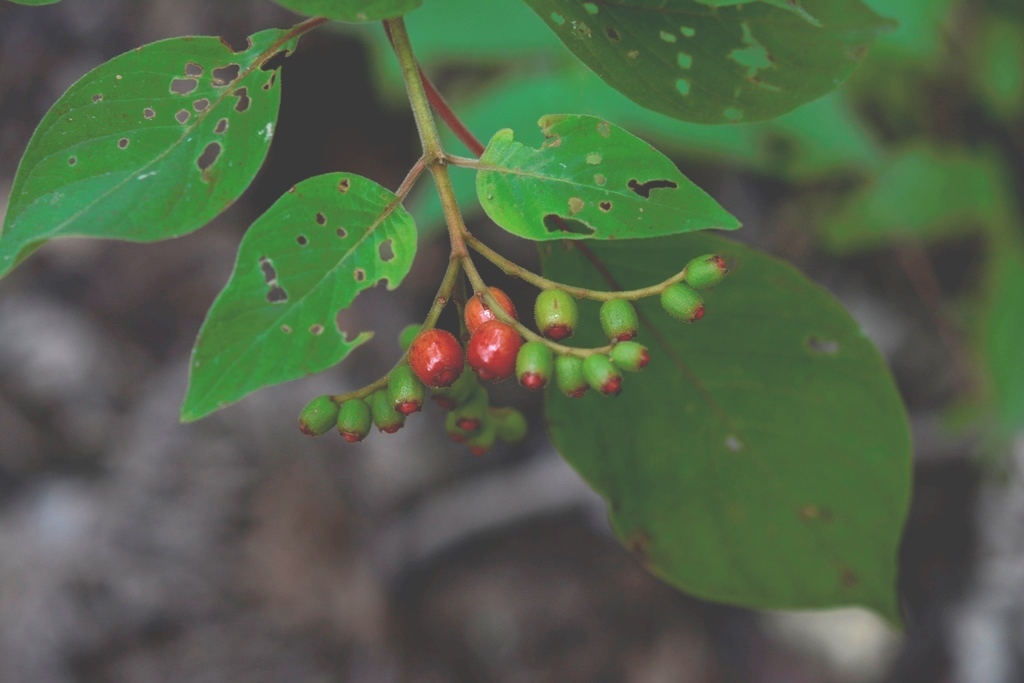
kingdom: Plantae
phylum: Tracheophyta
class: Magnoliopsida
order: Gentianales
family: Rubiaceae
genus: Hamelia
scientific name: Hamelia patens
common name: Redhead
